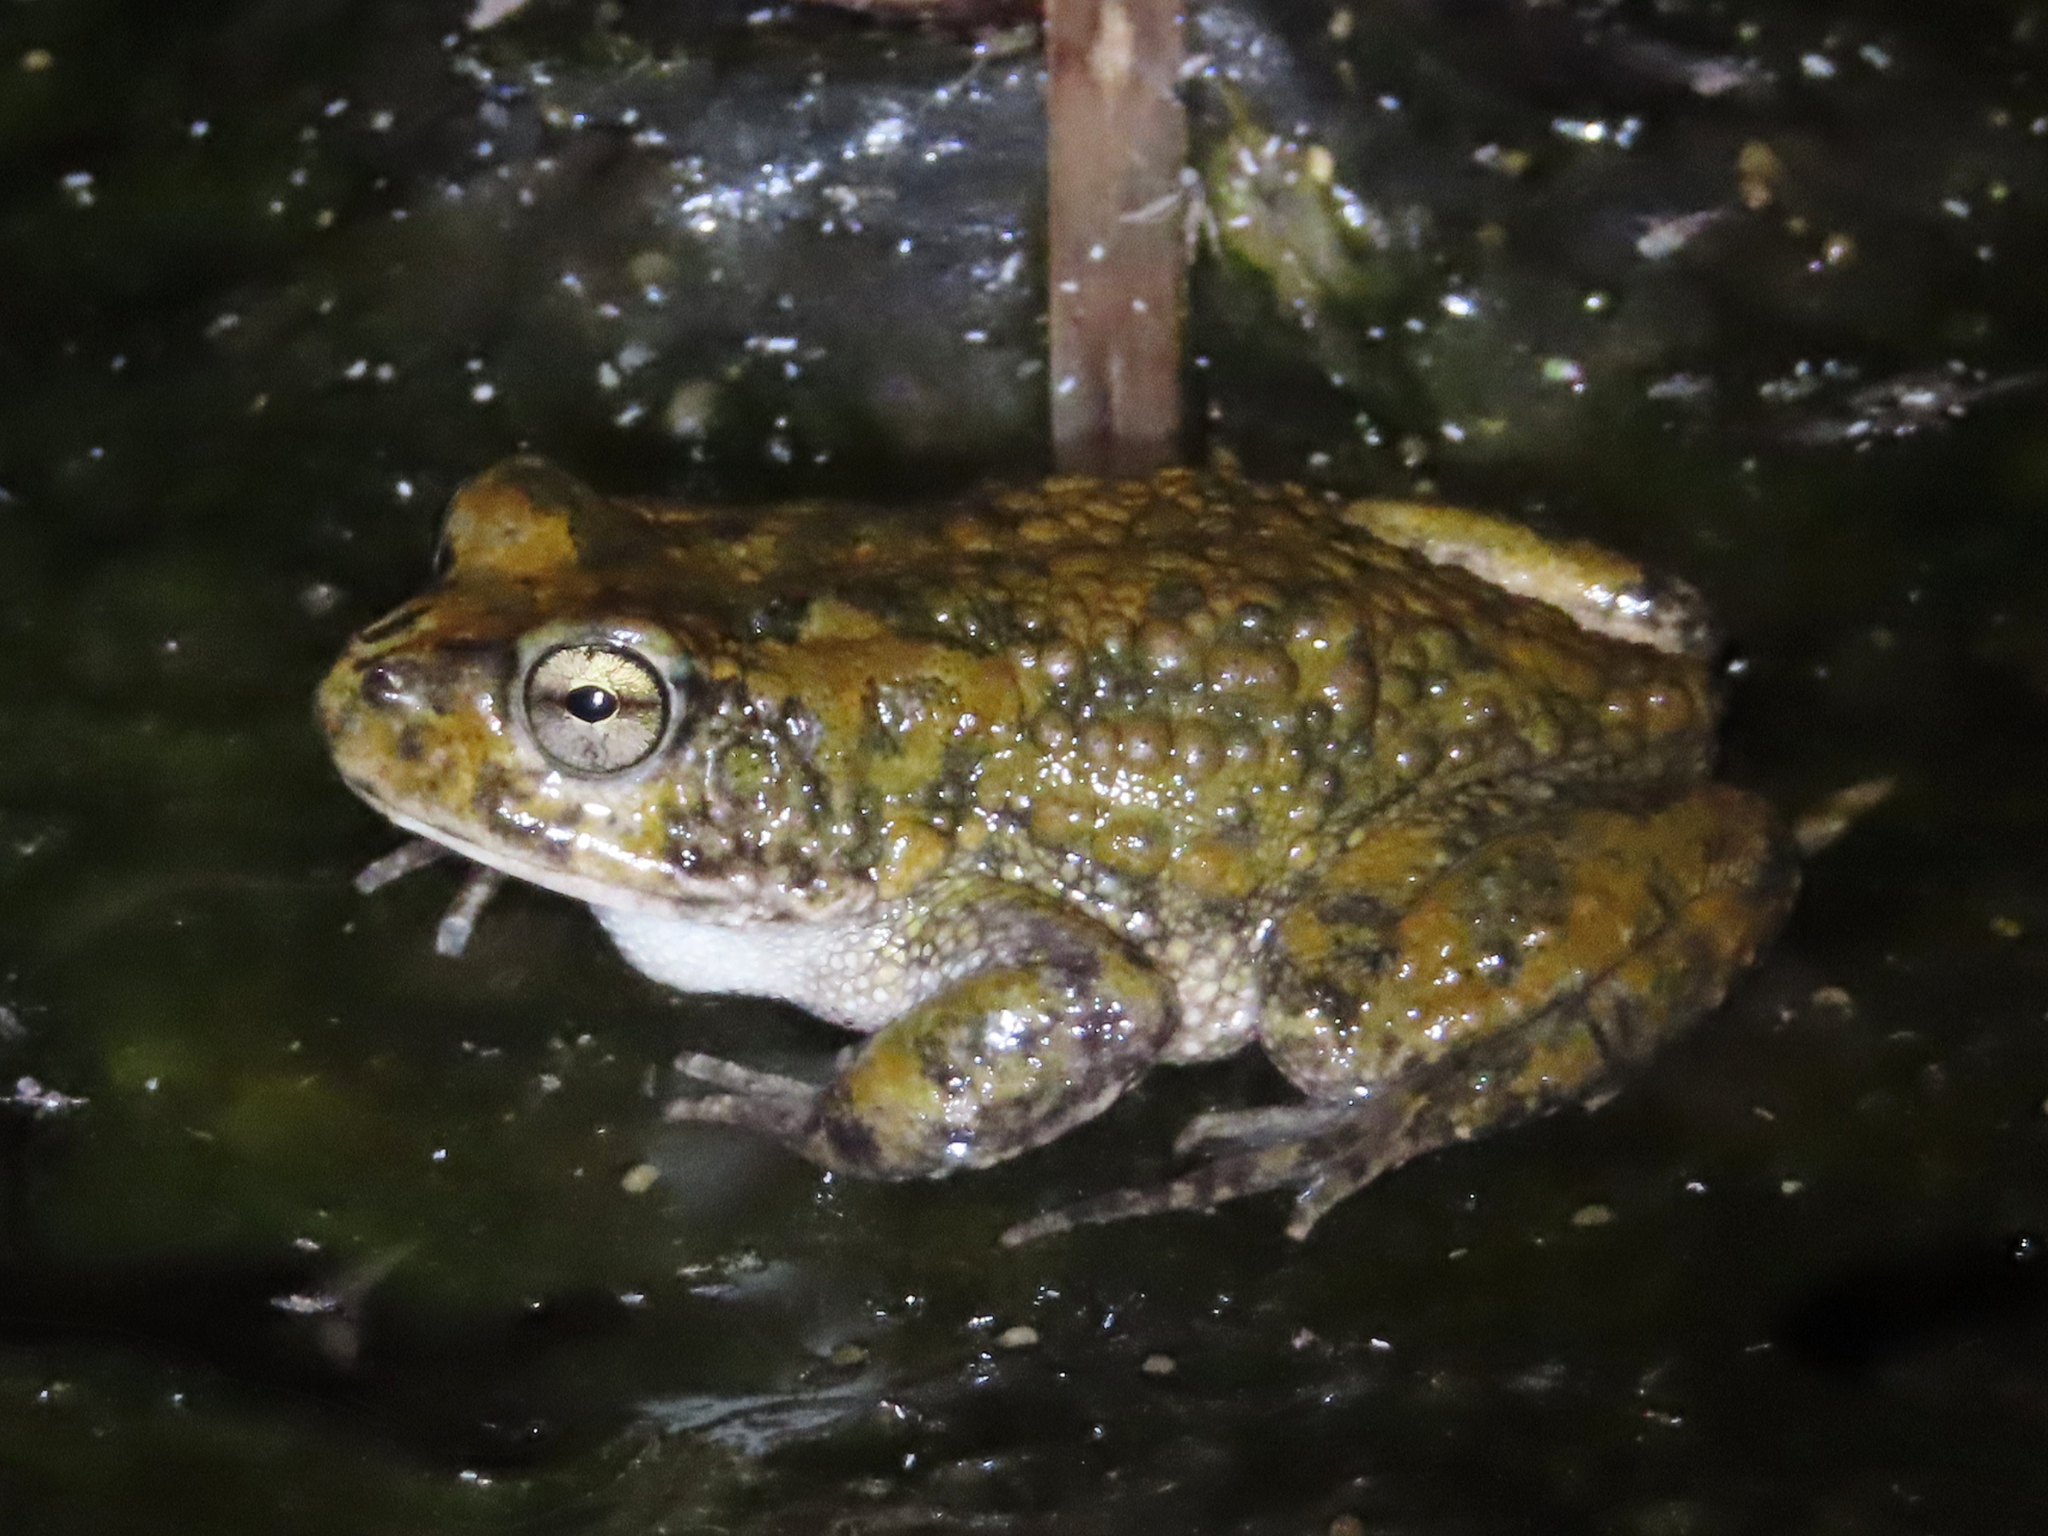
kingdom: Animalia
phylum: Chordata
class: Amphibia
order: Anura
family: Bufonidae
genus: Sclerophrys
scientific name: Sclerophrys arabica
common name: Arabian toad
